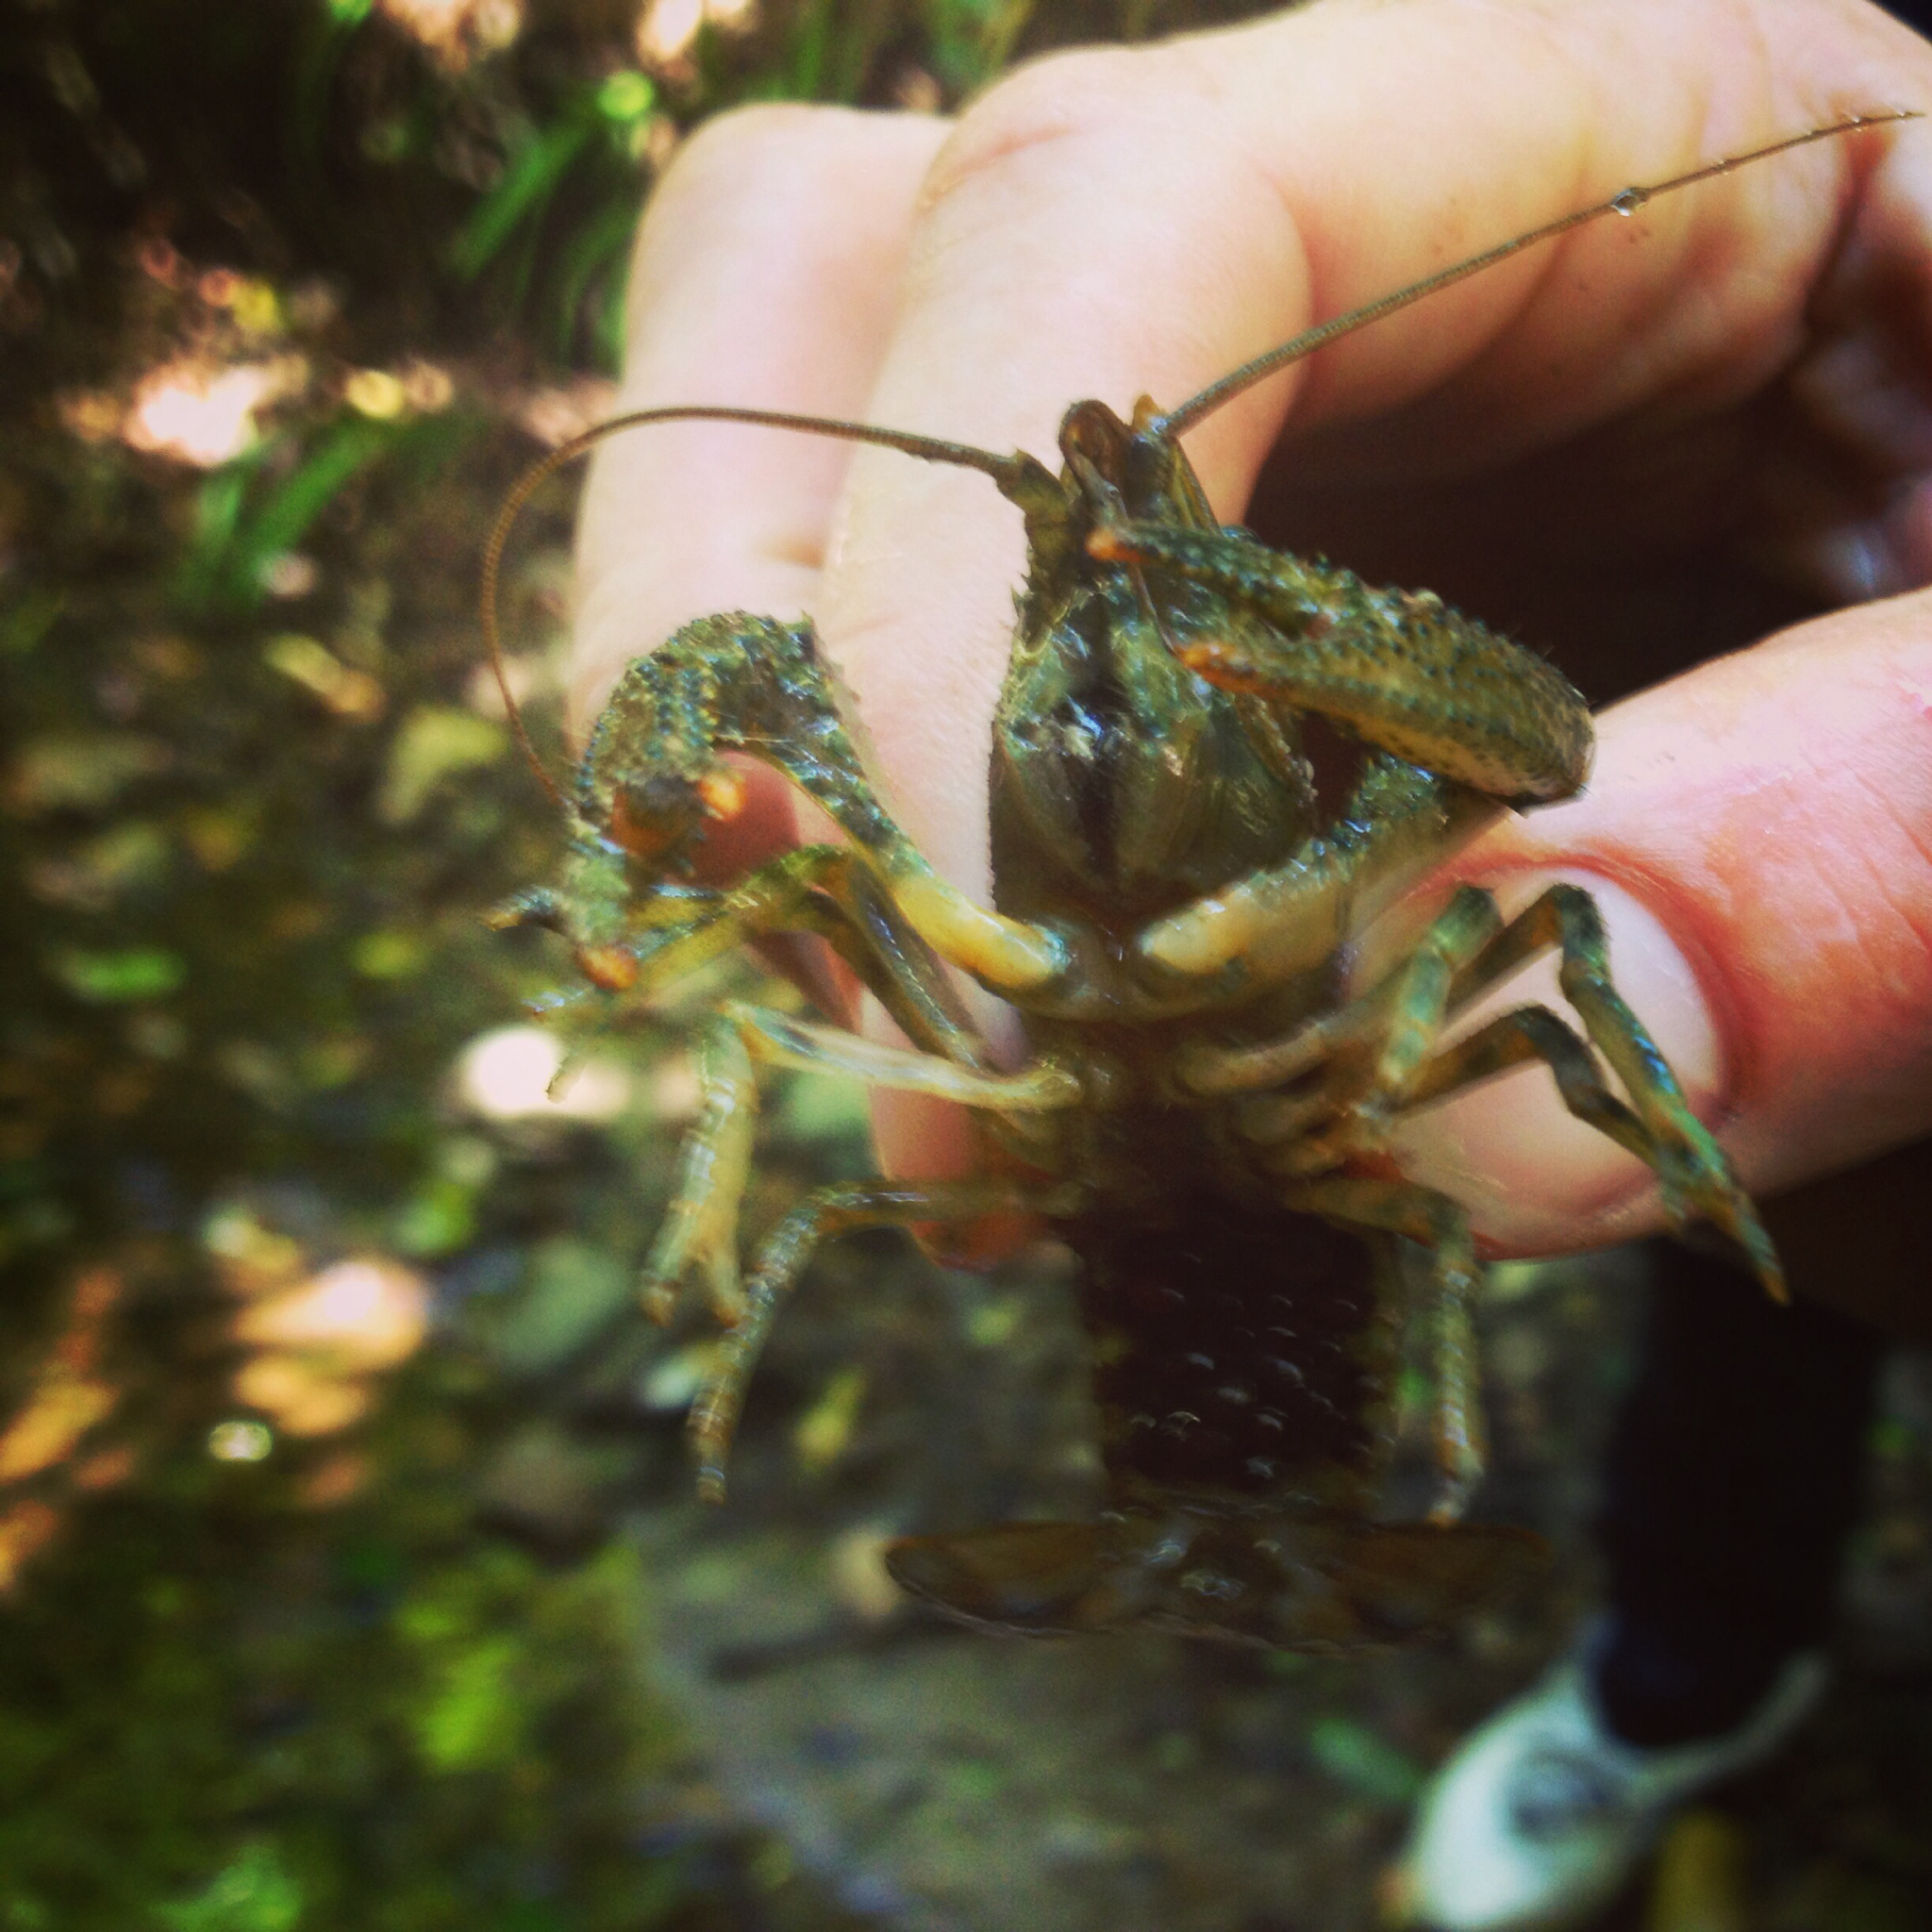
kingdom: Animalia
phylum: Arthropoda
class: Malacostraca
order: Decapoda
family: Parastacidae
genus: Paranephrops
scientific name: Paranephrops planifrons
